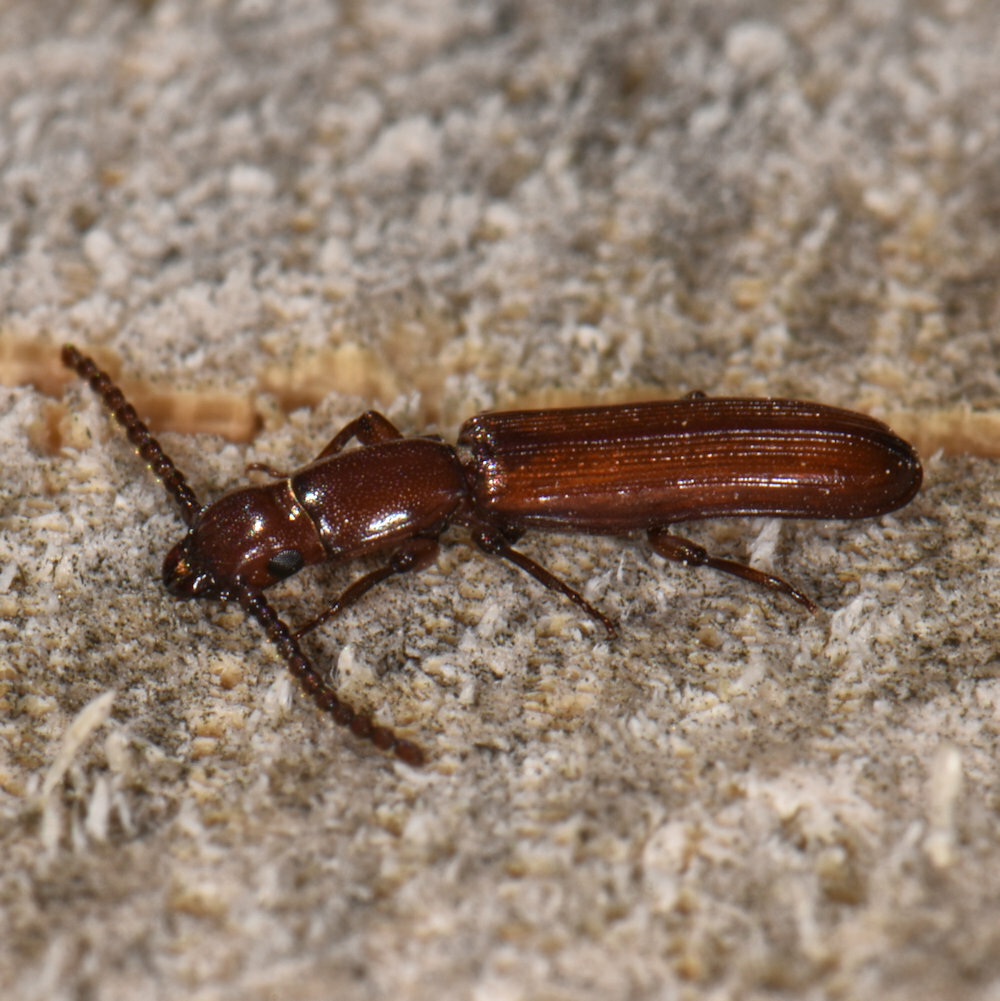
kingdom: Animalia
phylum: Arthropoda
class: Insecta
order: Coleoptera
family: Passandridae
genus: Catogenus
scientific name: Catogenus rufus
